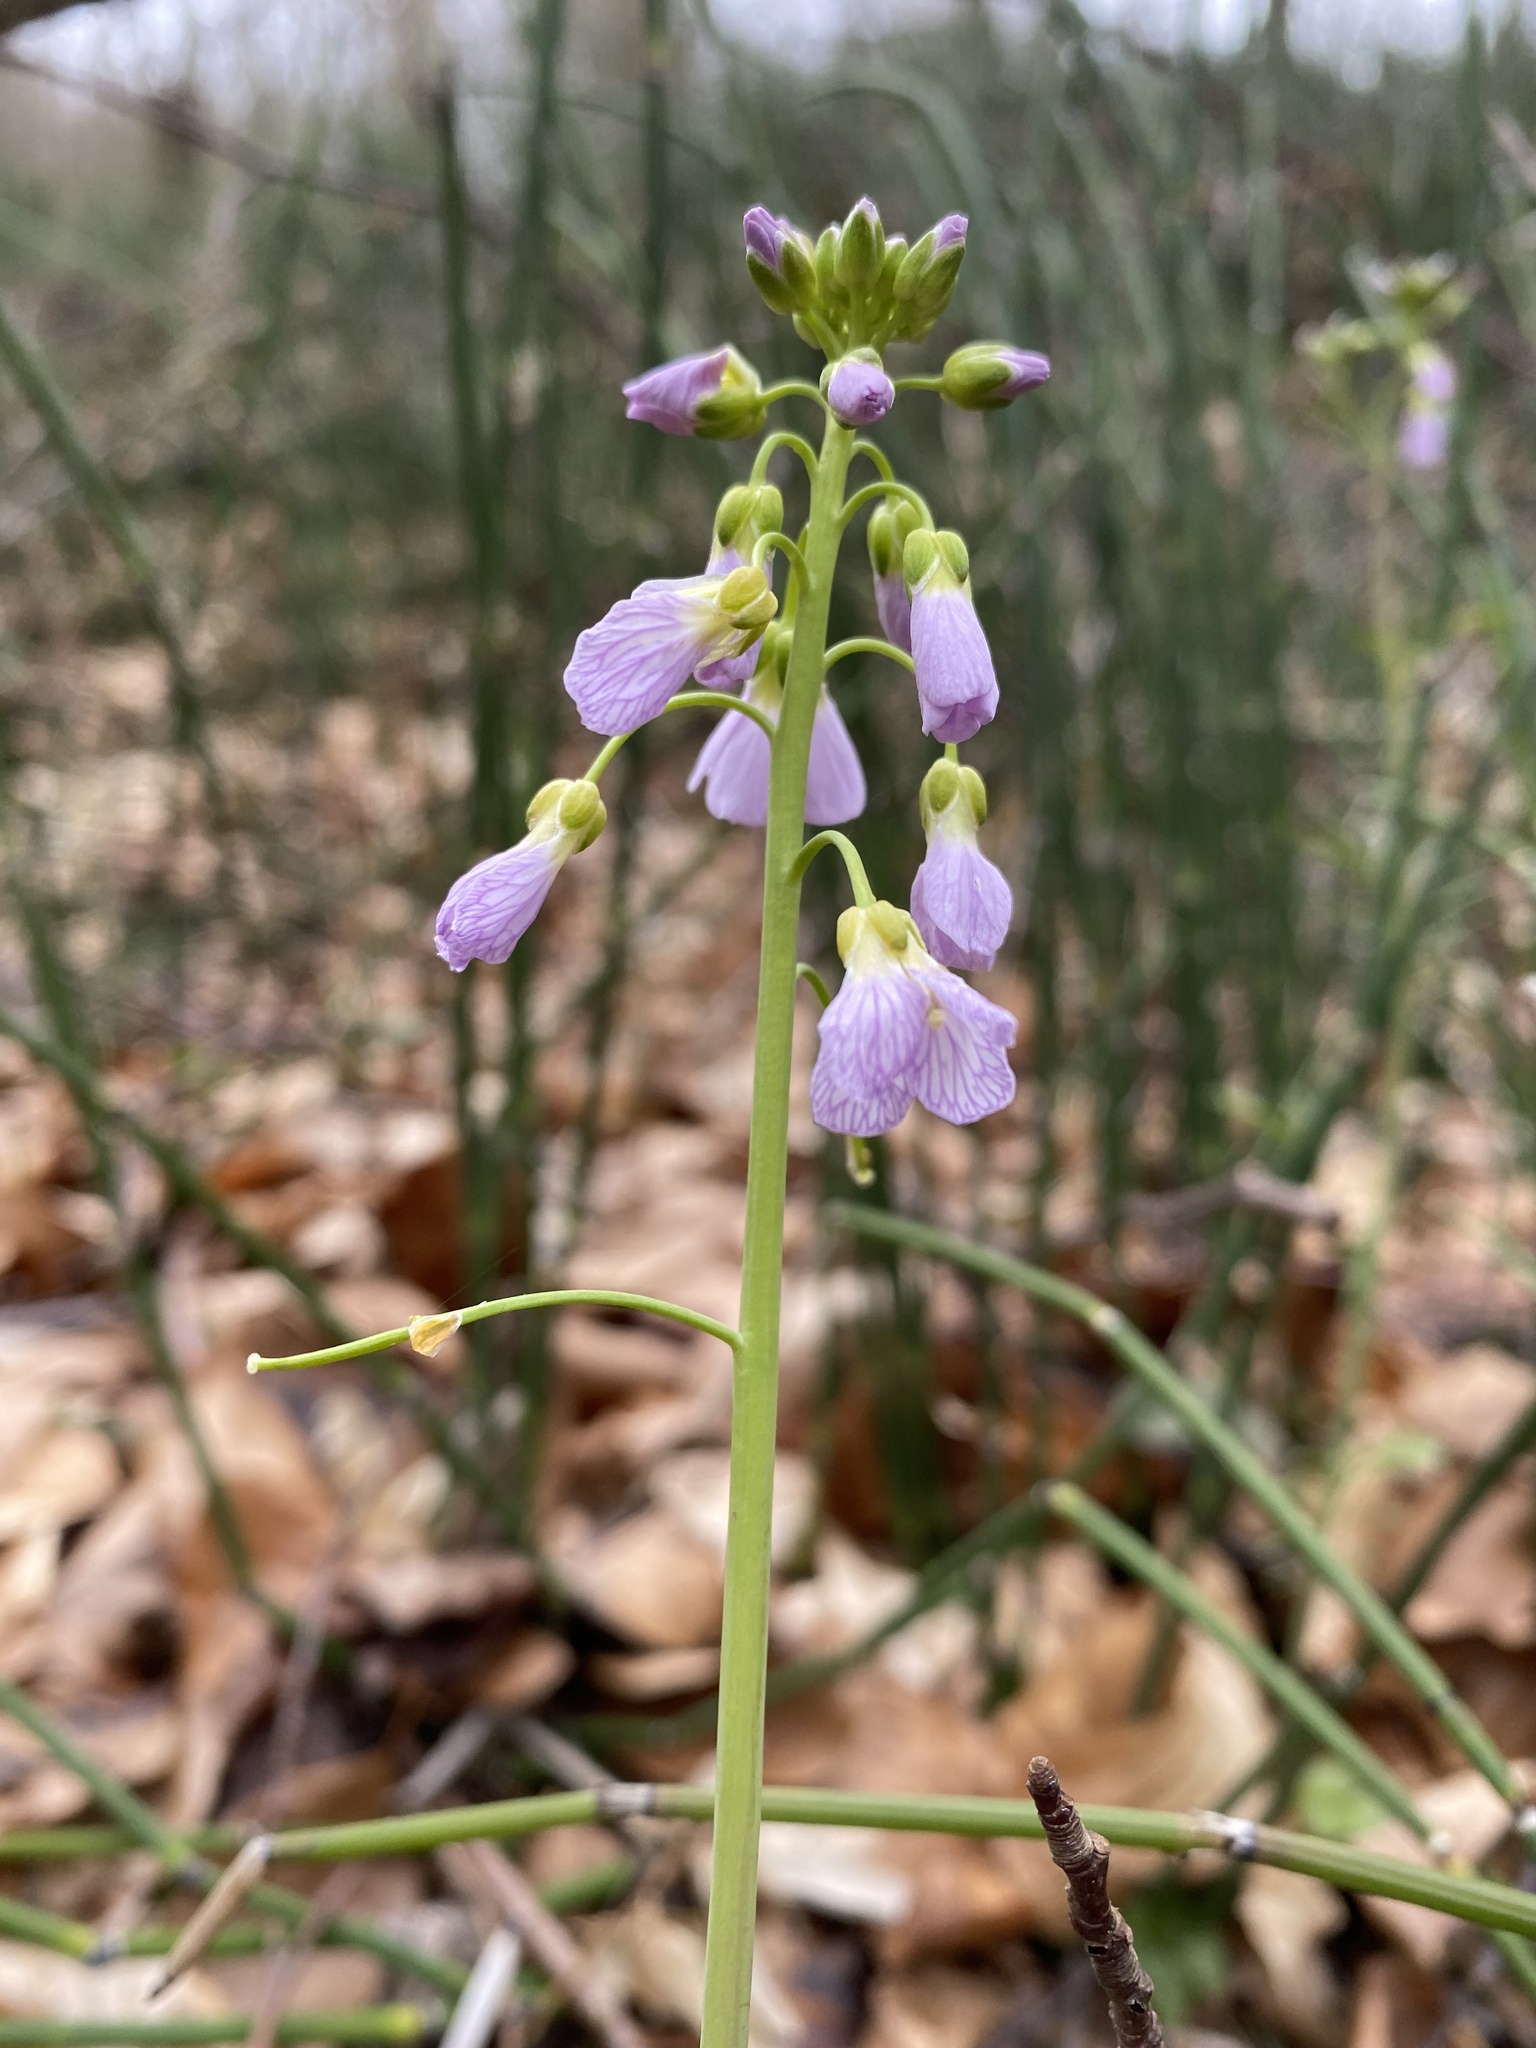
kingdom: Plantae
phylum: Tracheophyta
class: Magnoliopsida
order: Brassicales
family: Brassicaceae
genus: Cardamine
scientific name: Cardamine pratensis
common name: Cuckoo flower
